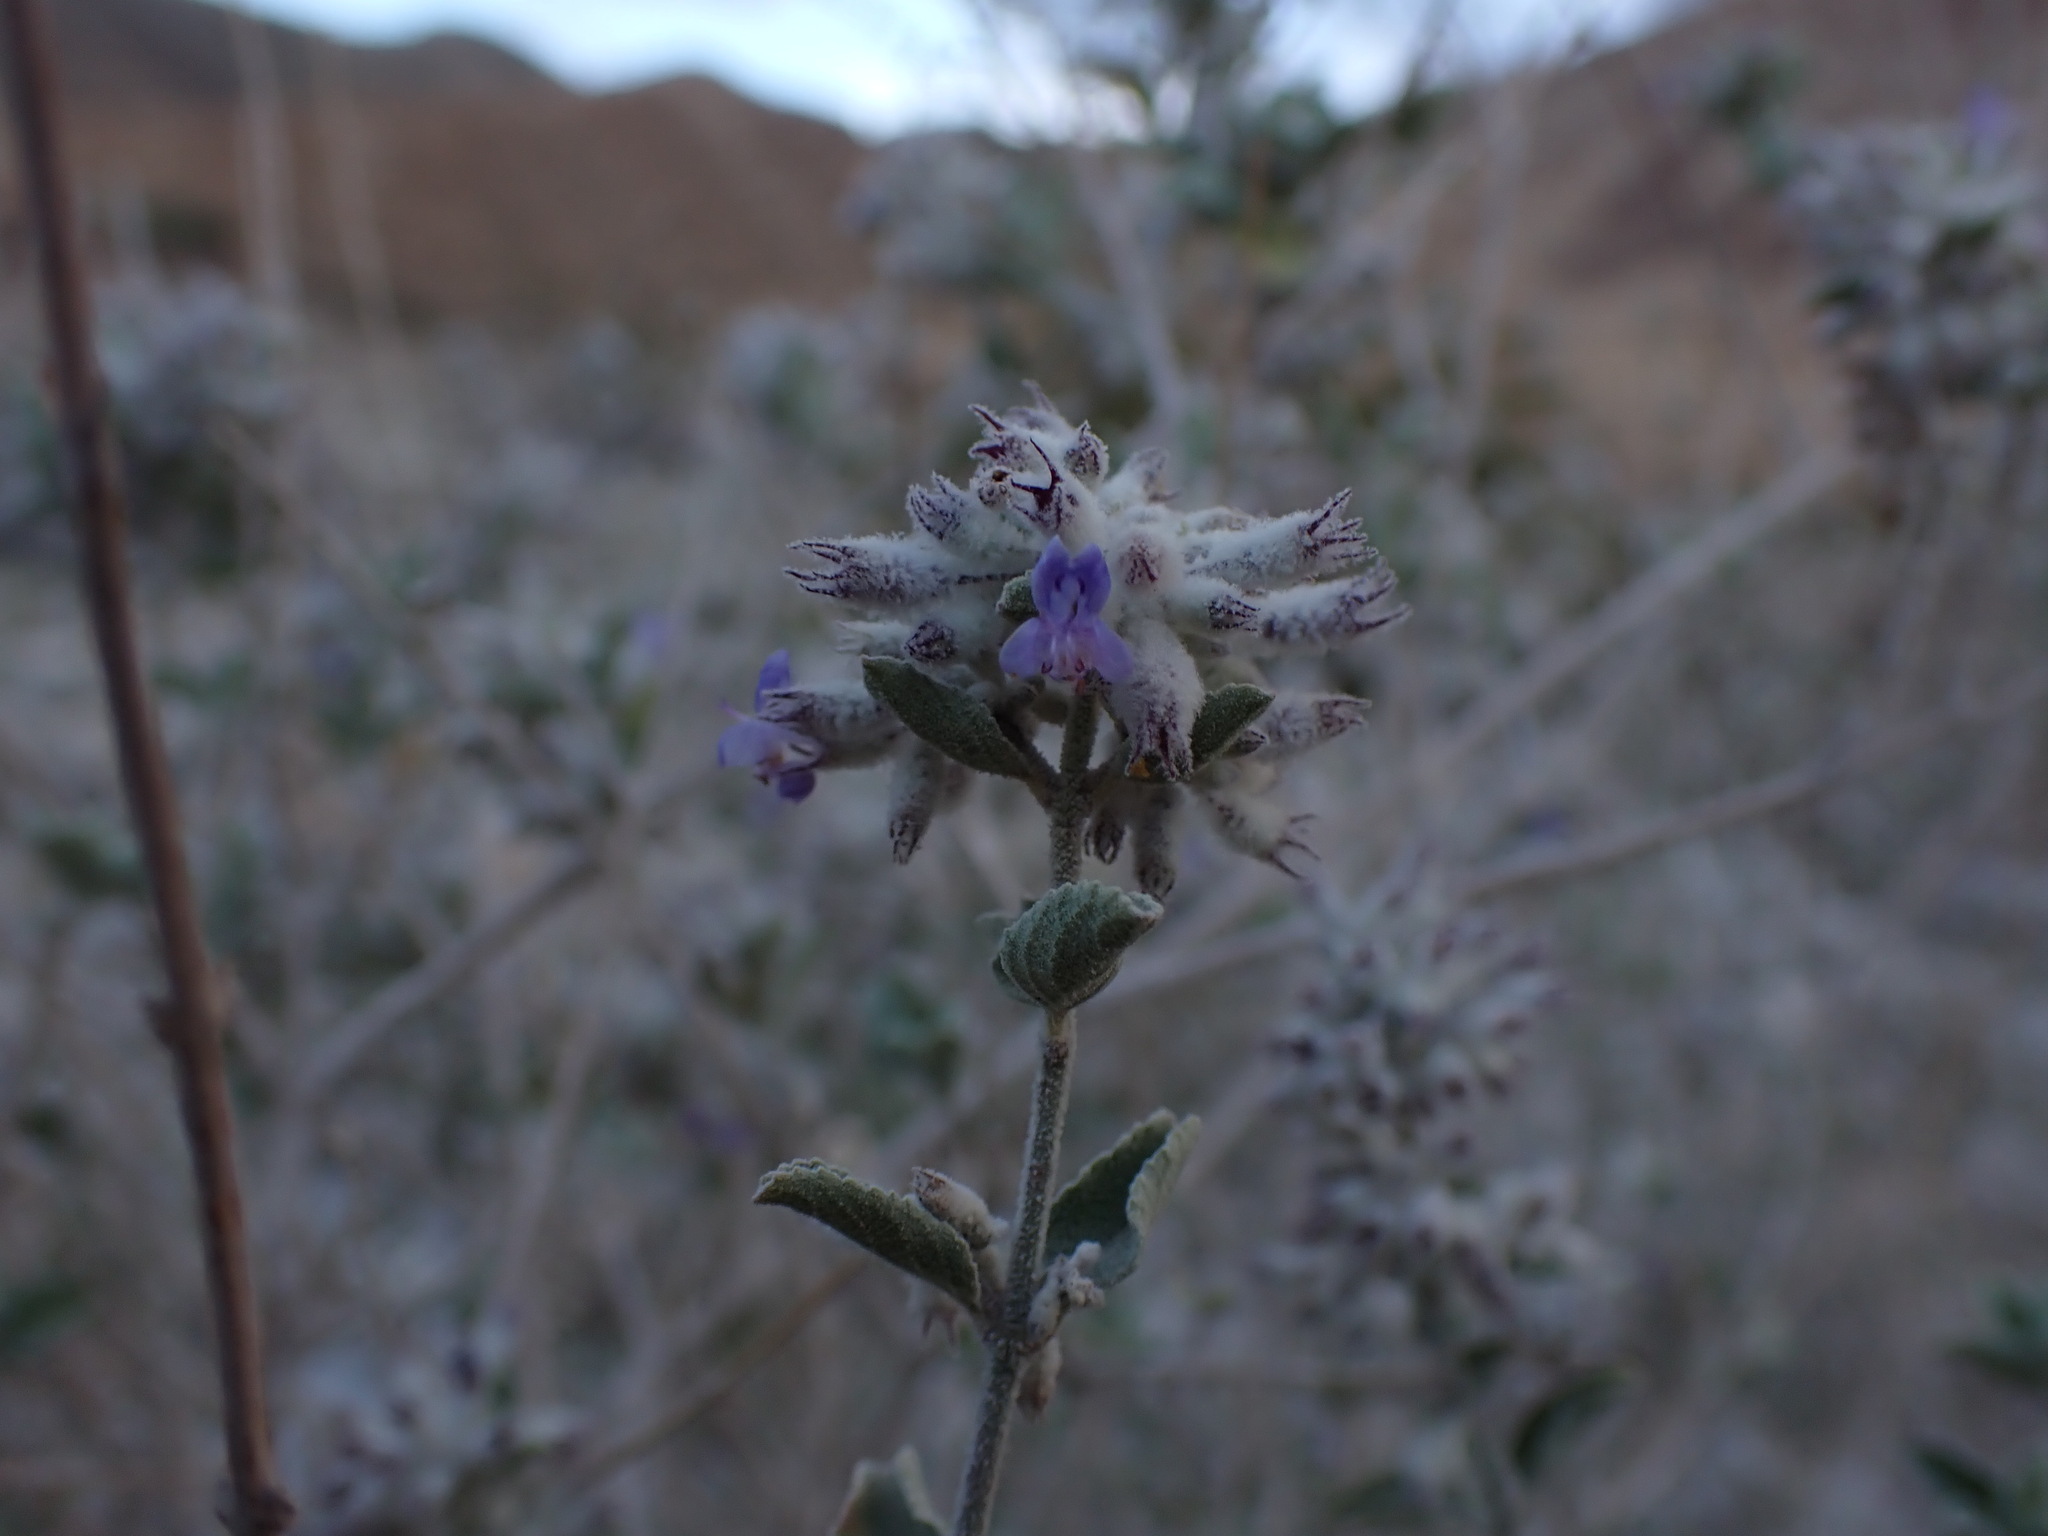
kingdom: Plantae
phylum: Tracheophyta
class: Magnoliopsida
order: Lamiales
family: Lamiaceae
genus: Condea
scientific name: Condea emoryi
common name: Chia
